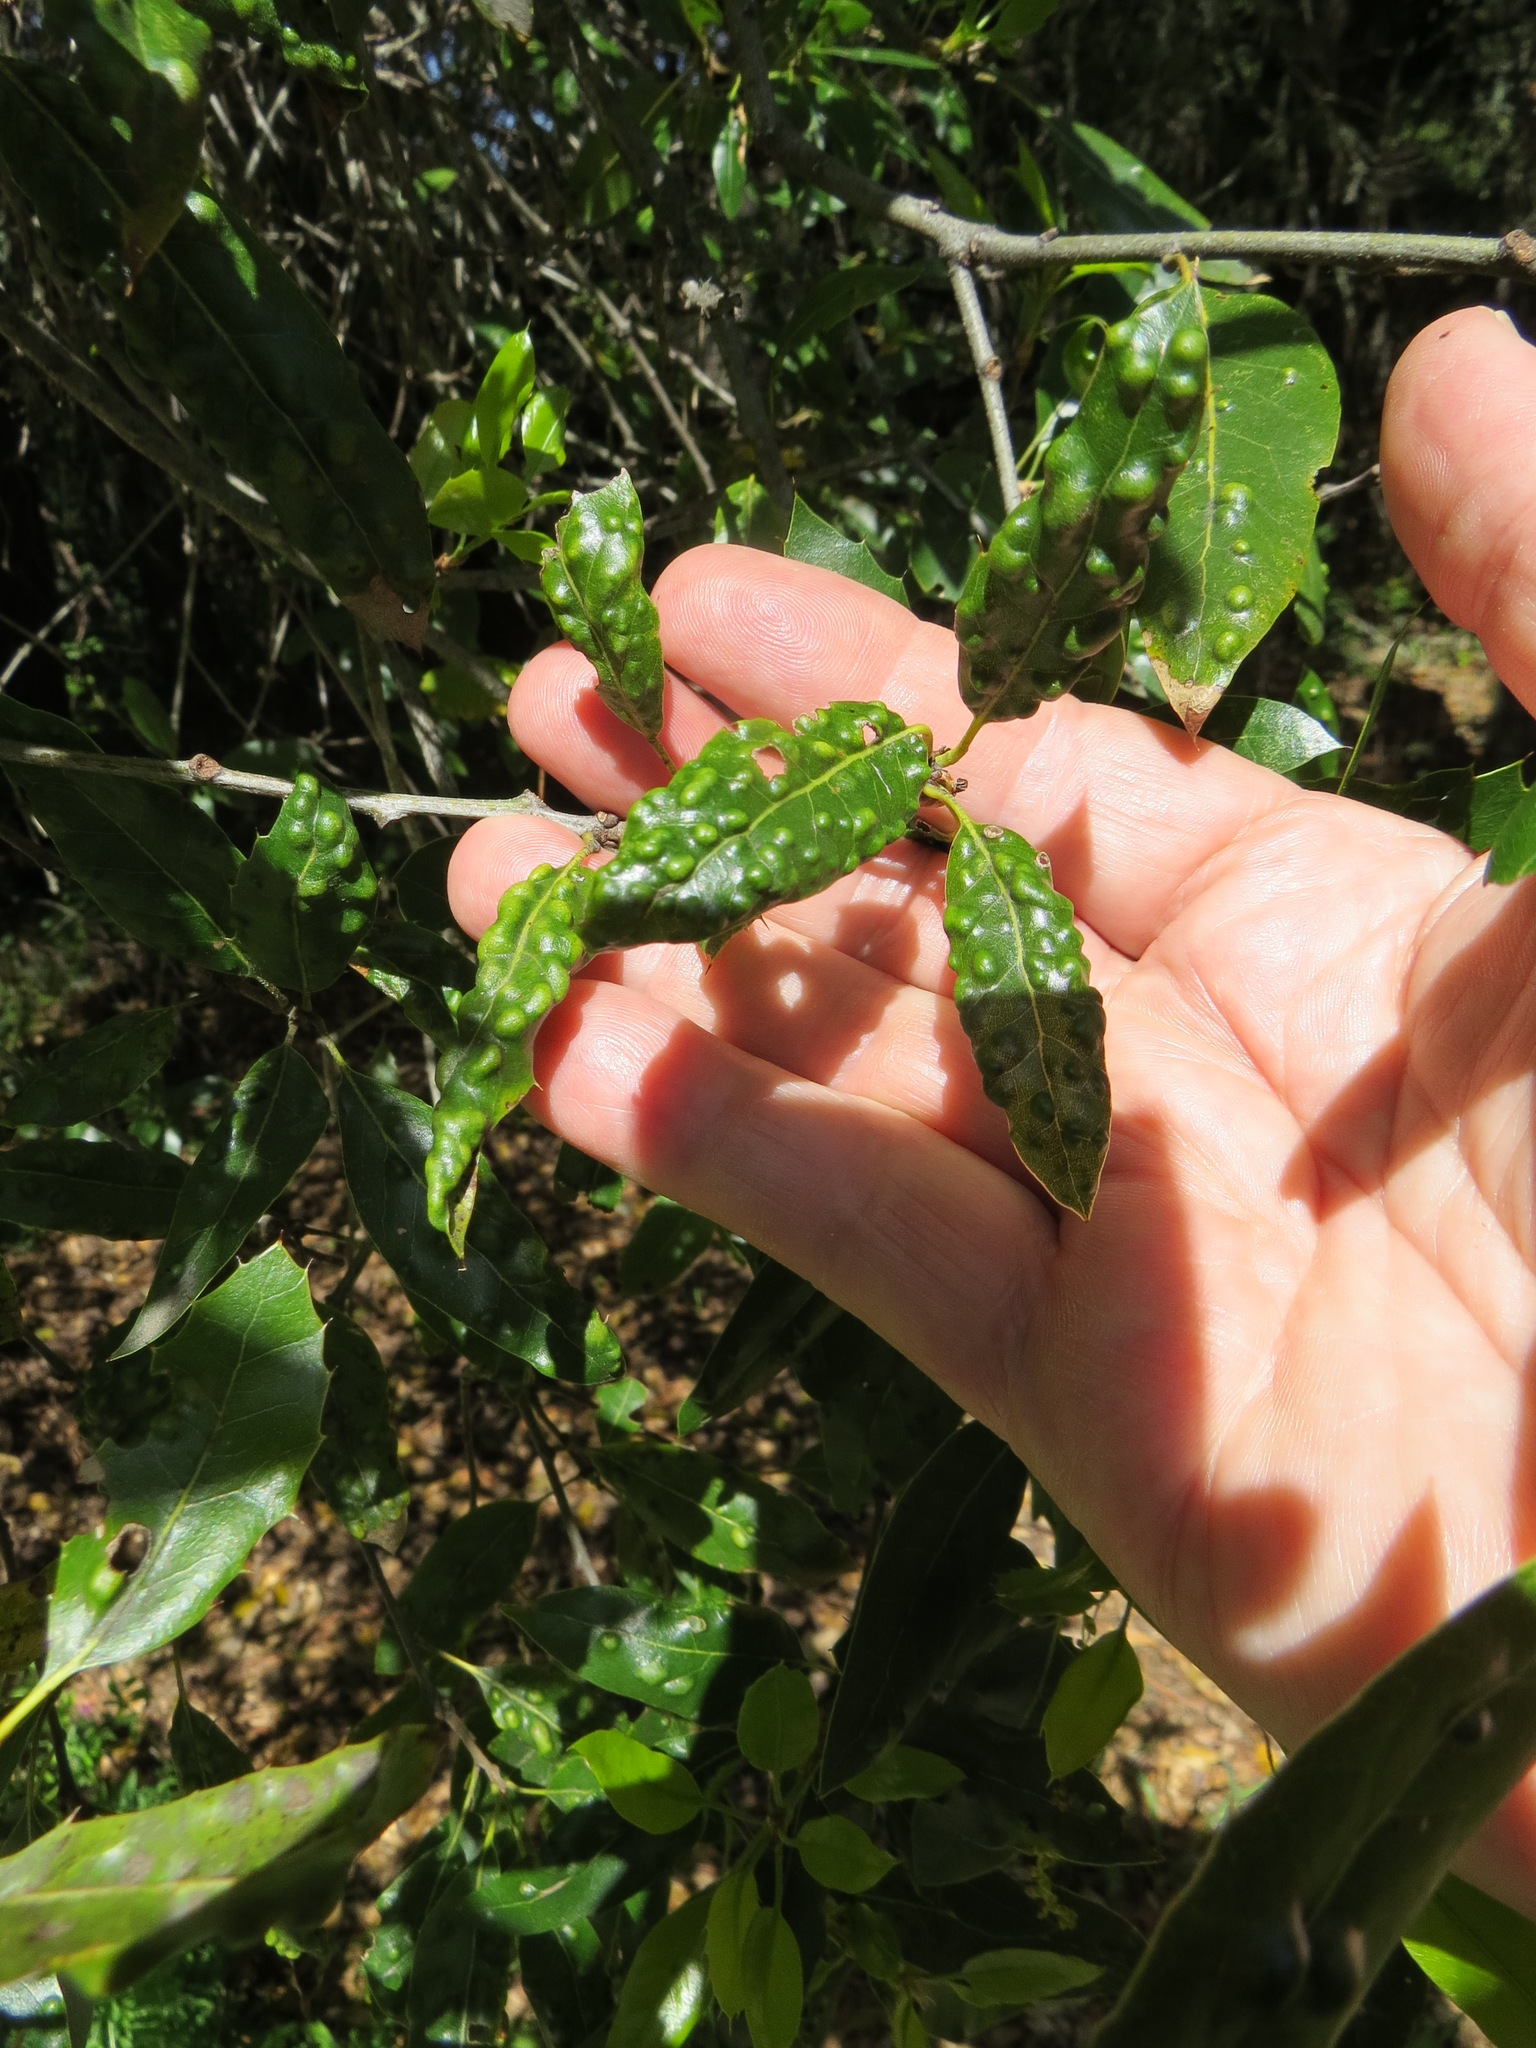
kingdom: Animalia
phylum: Arthropoda
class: Arachnida
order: Trombidiformes
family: Eriophyidae
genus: Aceria
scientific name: Aceria
